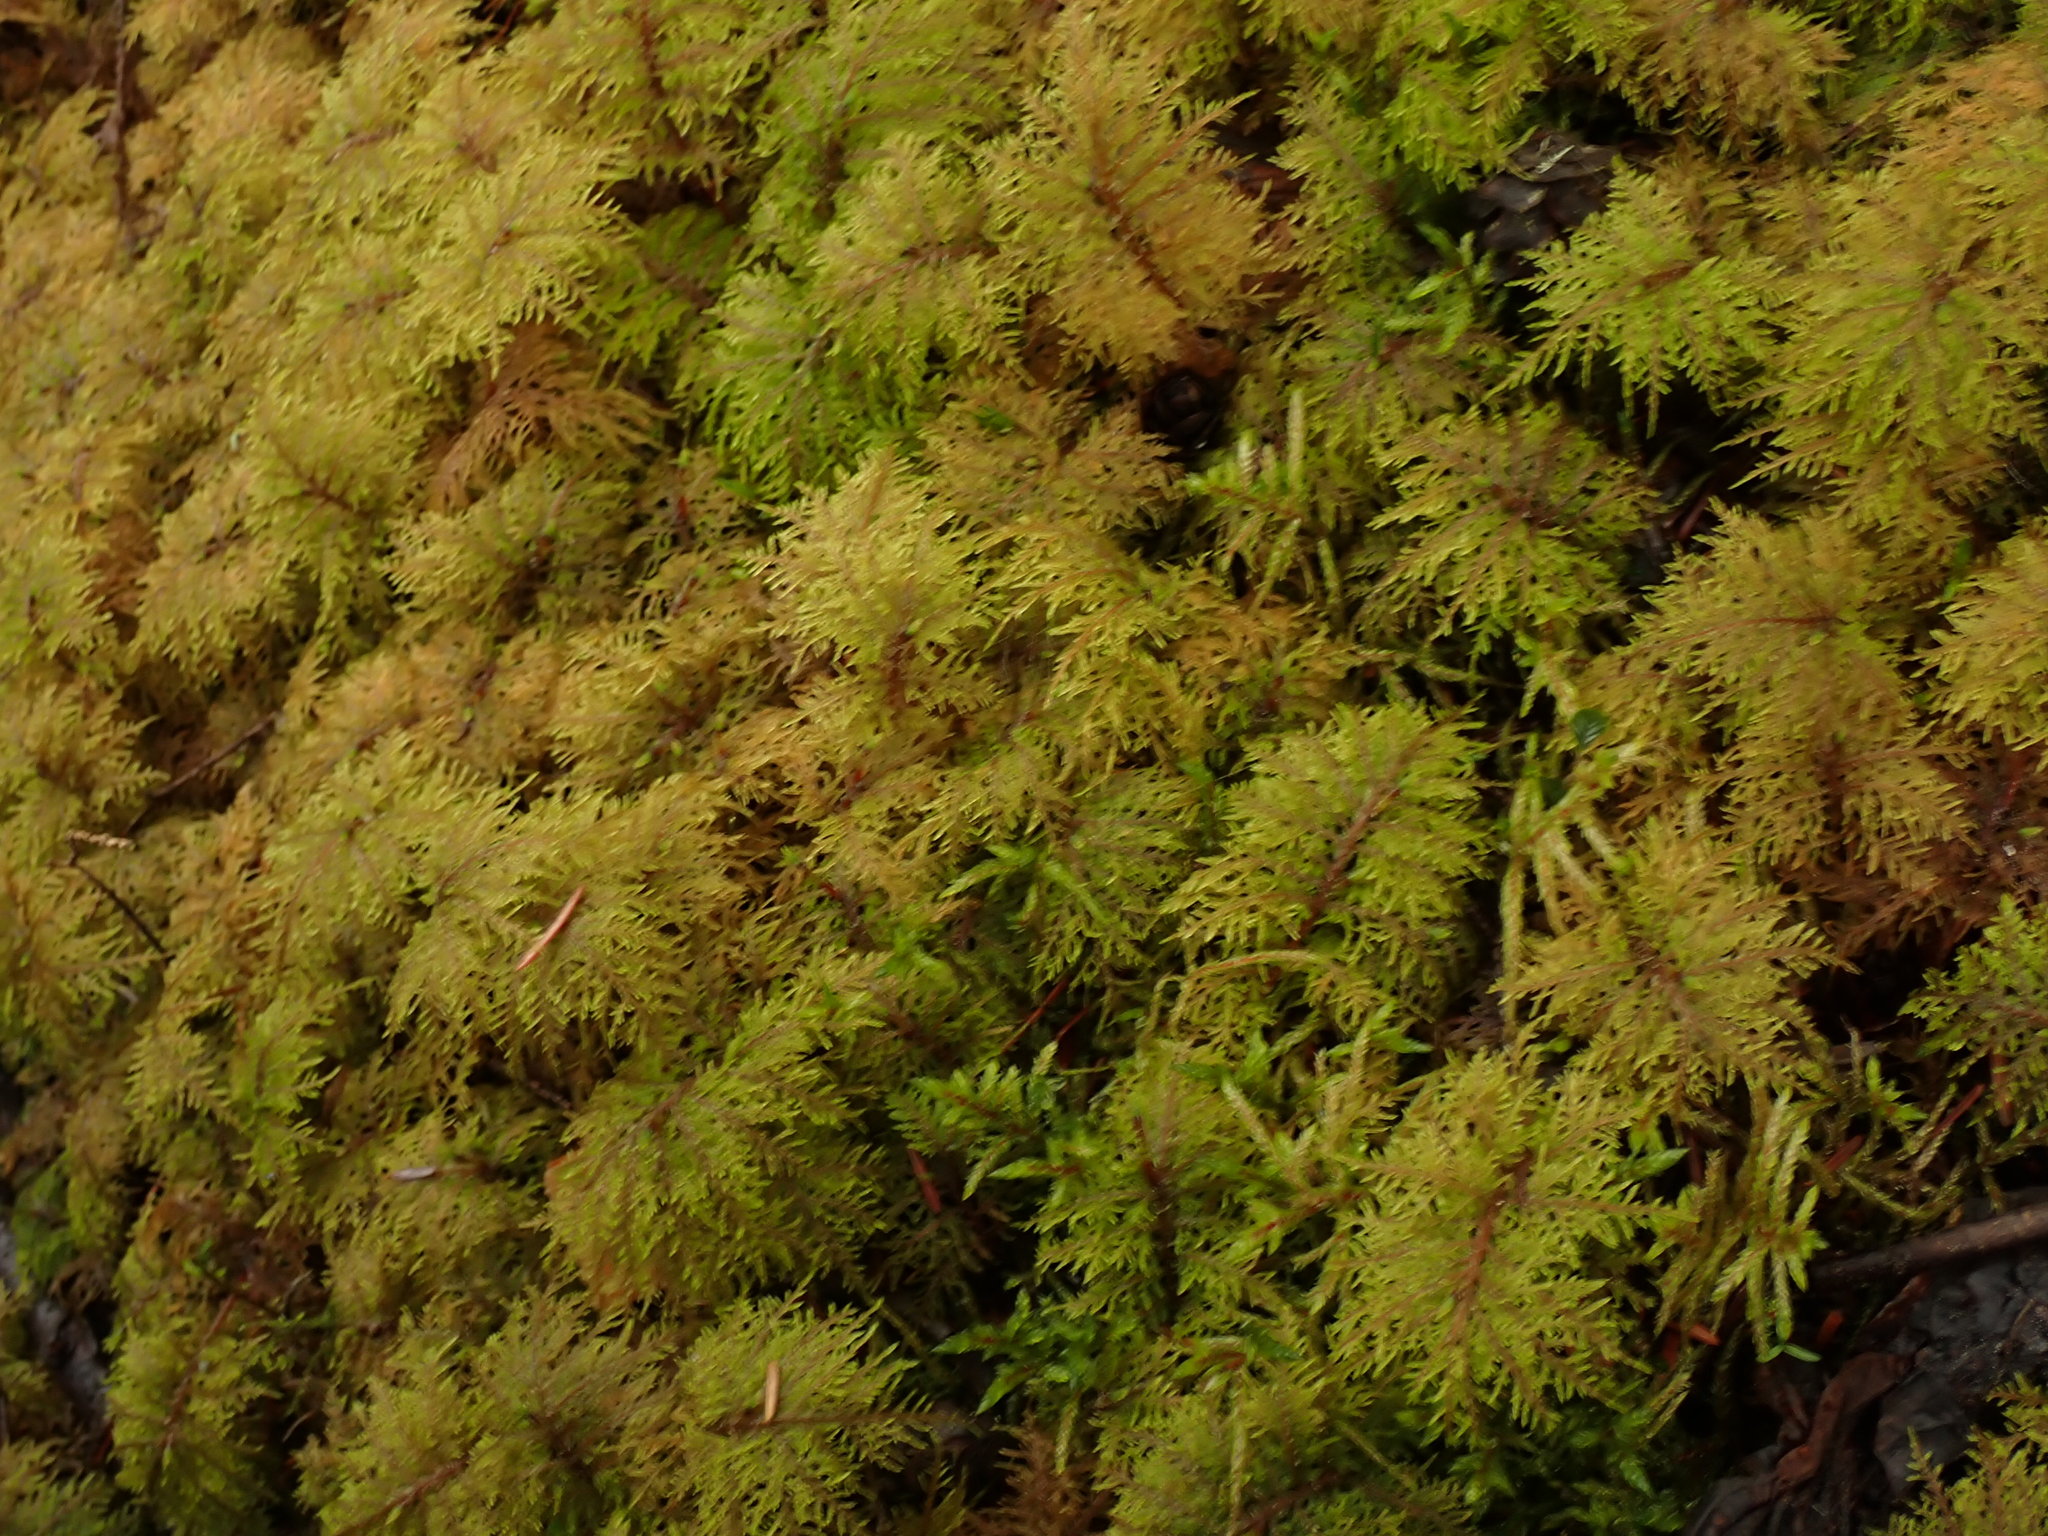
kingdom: Plantae
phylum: Bryophyta
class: Bryopsida
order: Hypnales
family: Hylocomiaceae
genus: Hylocomium
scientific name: Hylocomium splendens
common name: Stairstep moss
